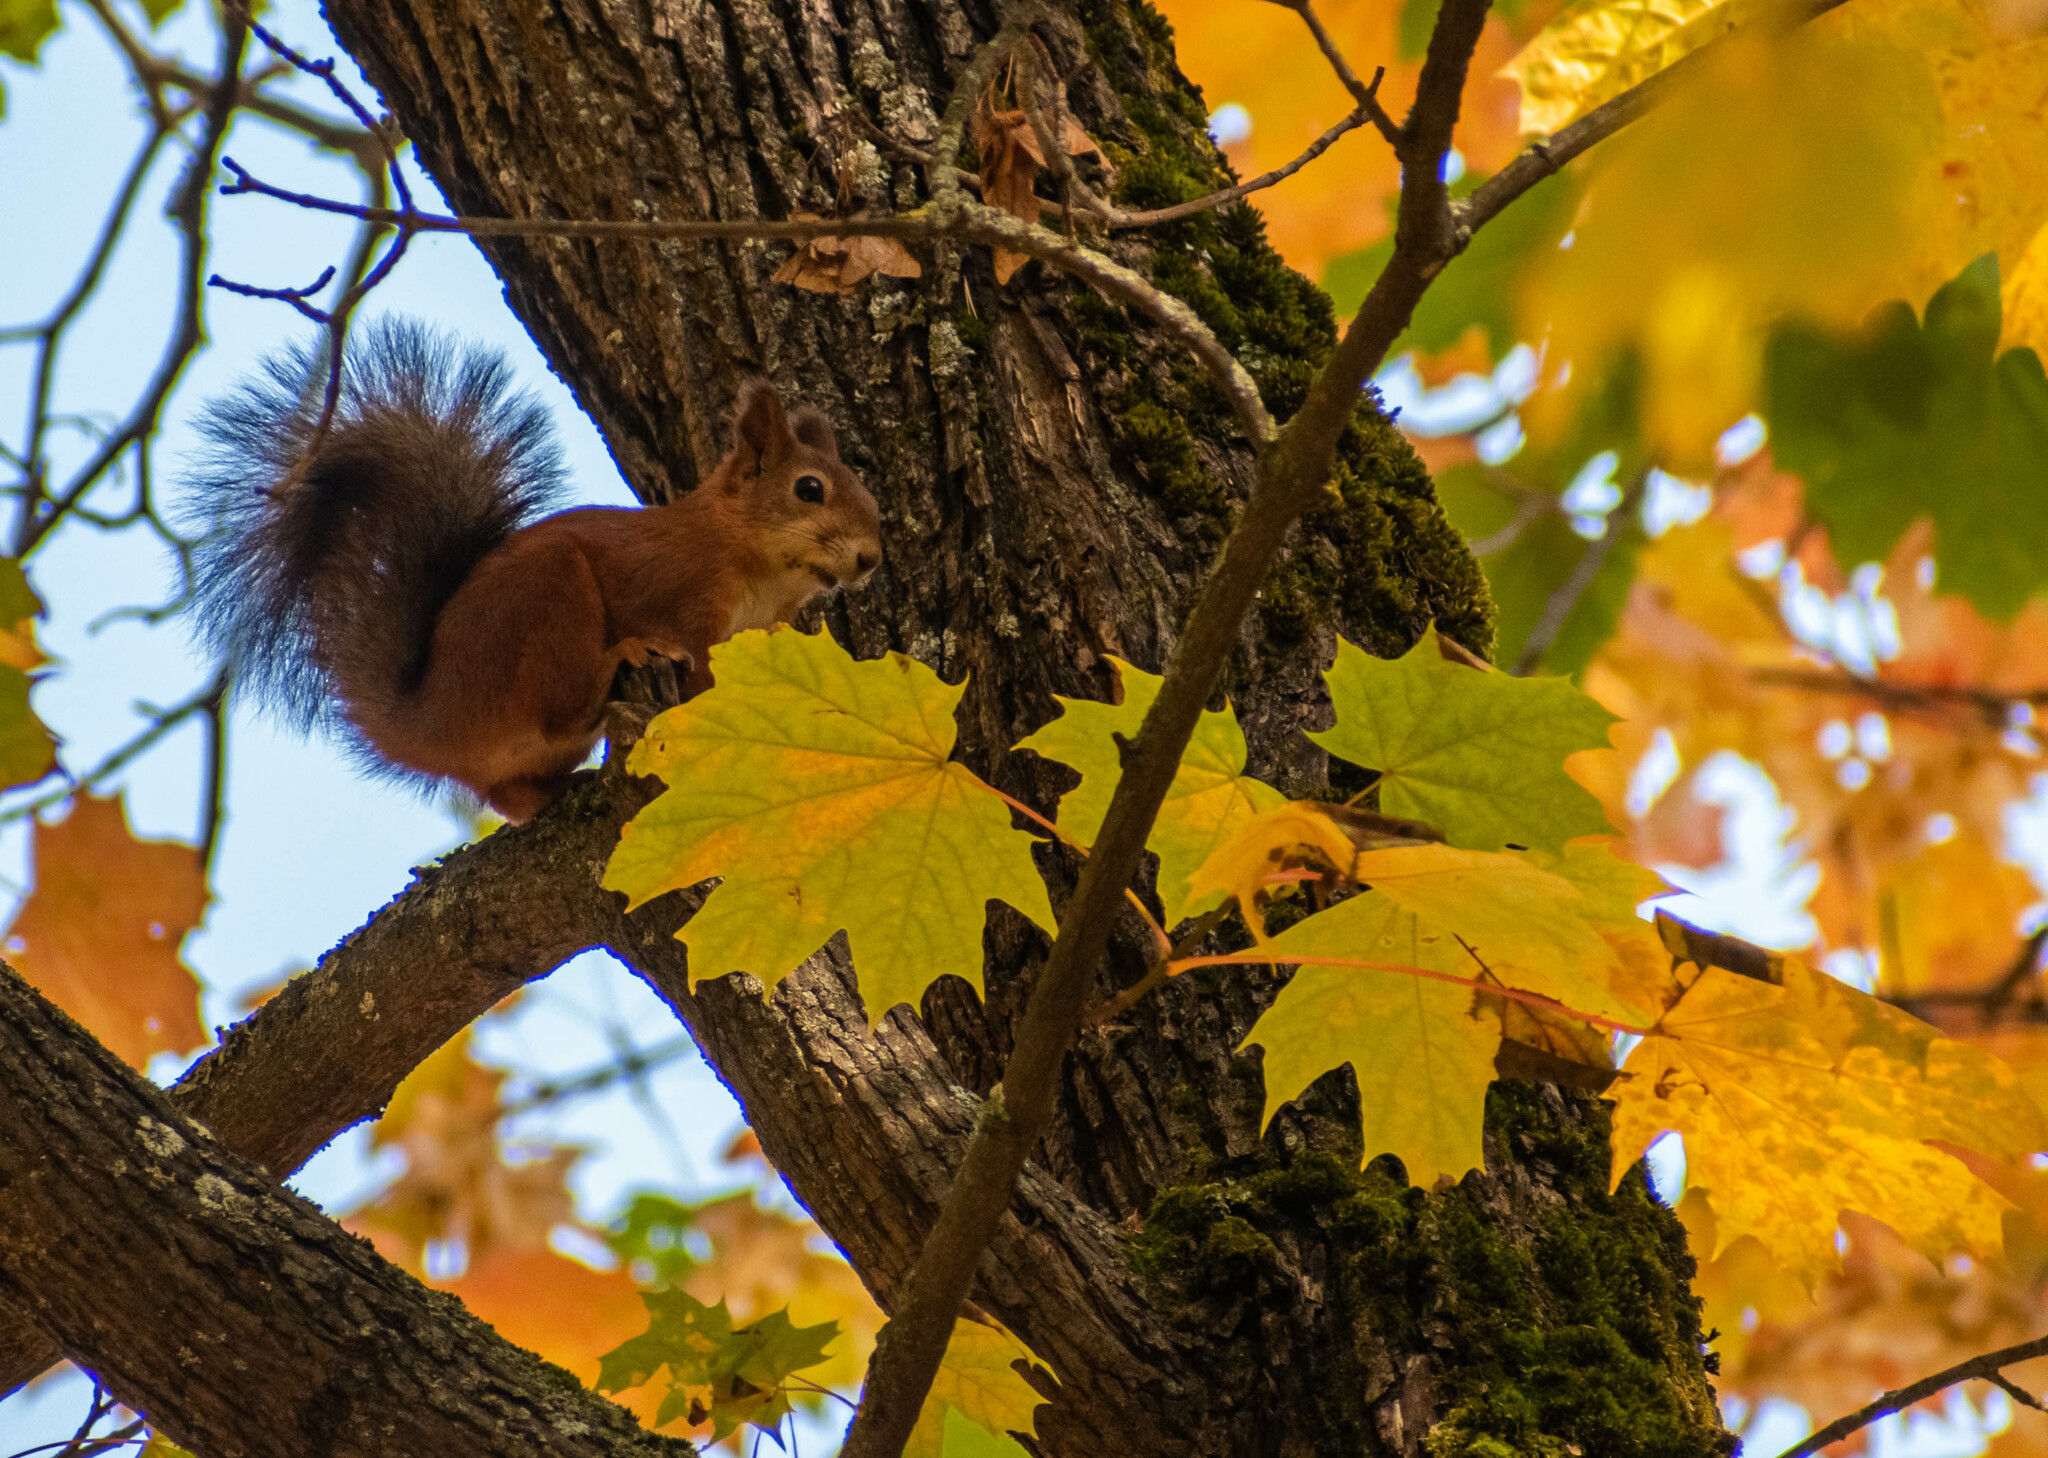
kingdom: Animalia
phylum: Chordata
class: Mammalia
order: Rodentia
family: Sciuridae
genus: Sciurus
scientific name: Sciurus vulgaris
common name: Eurasian red squirrel
